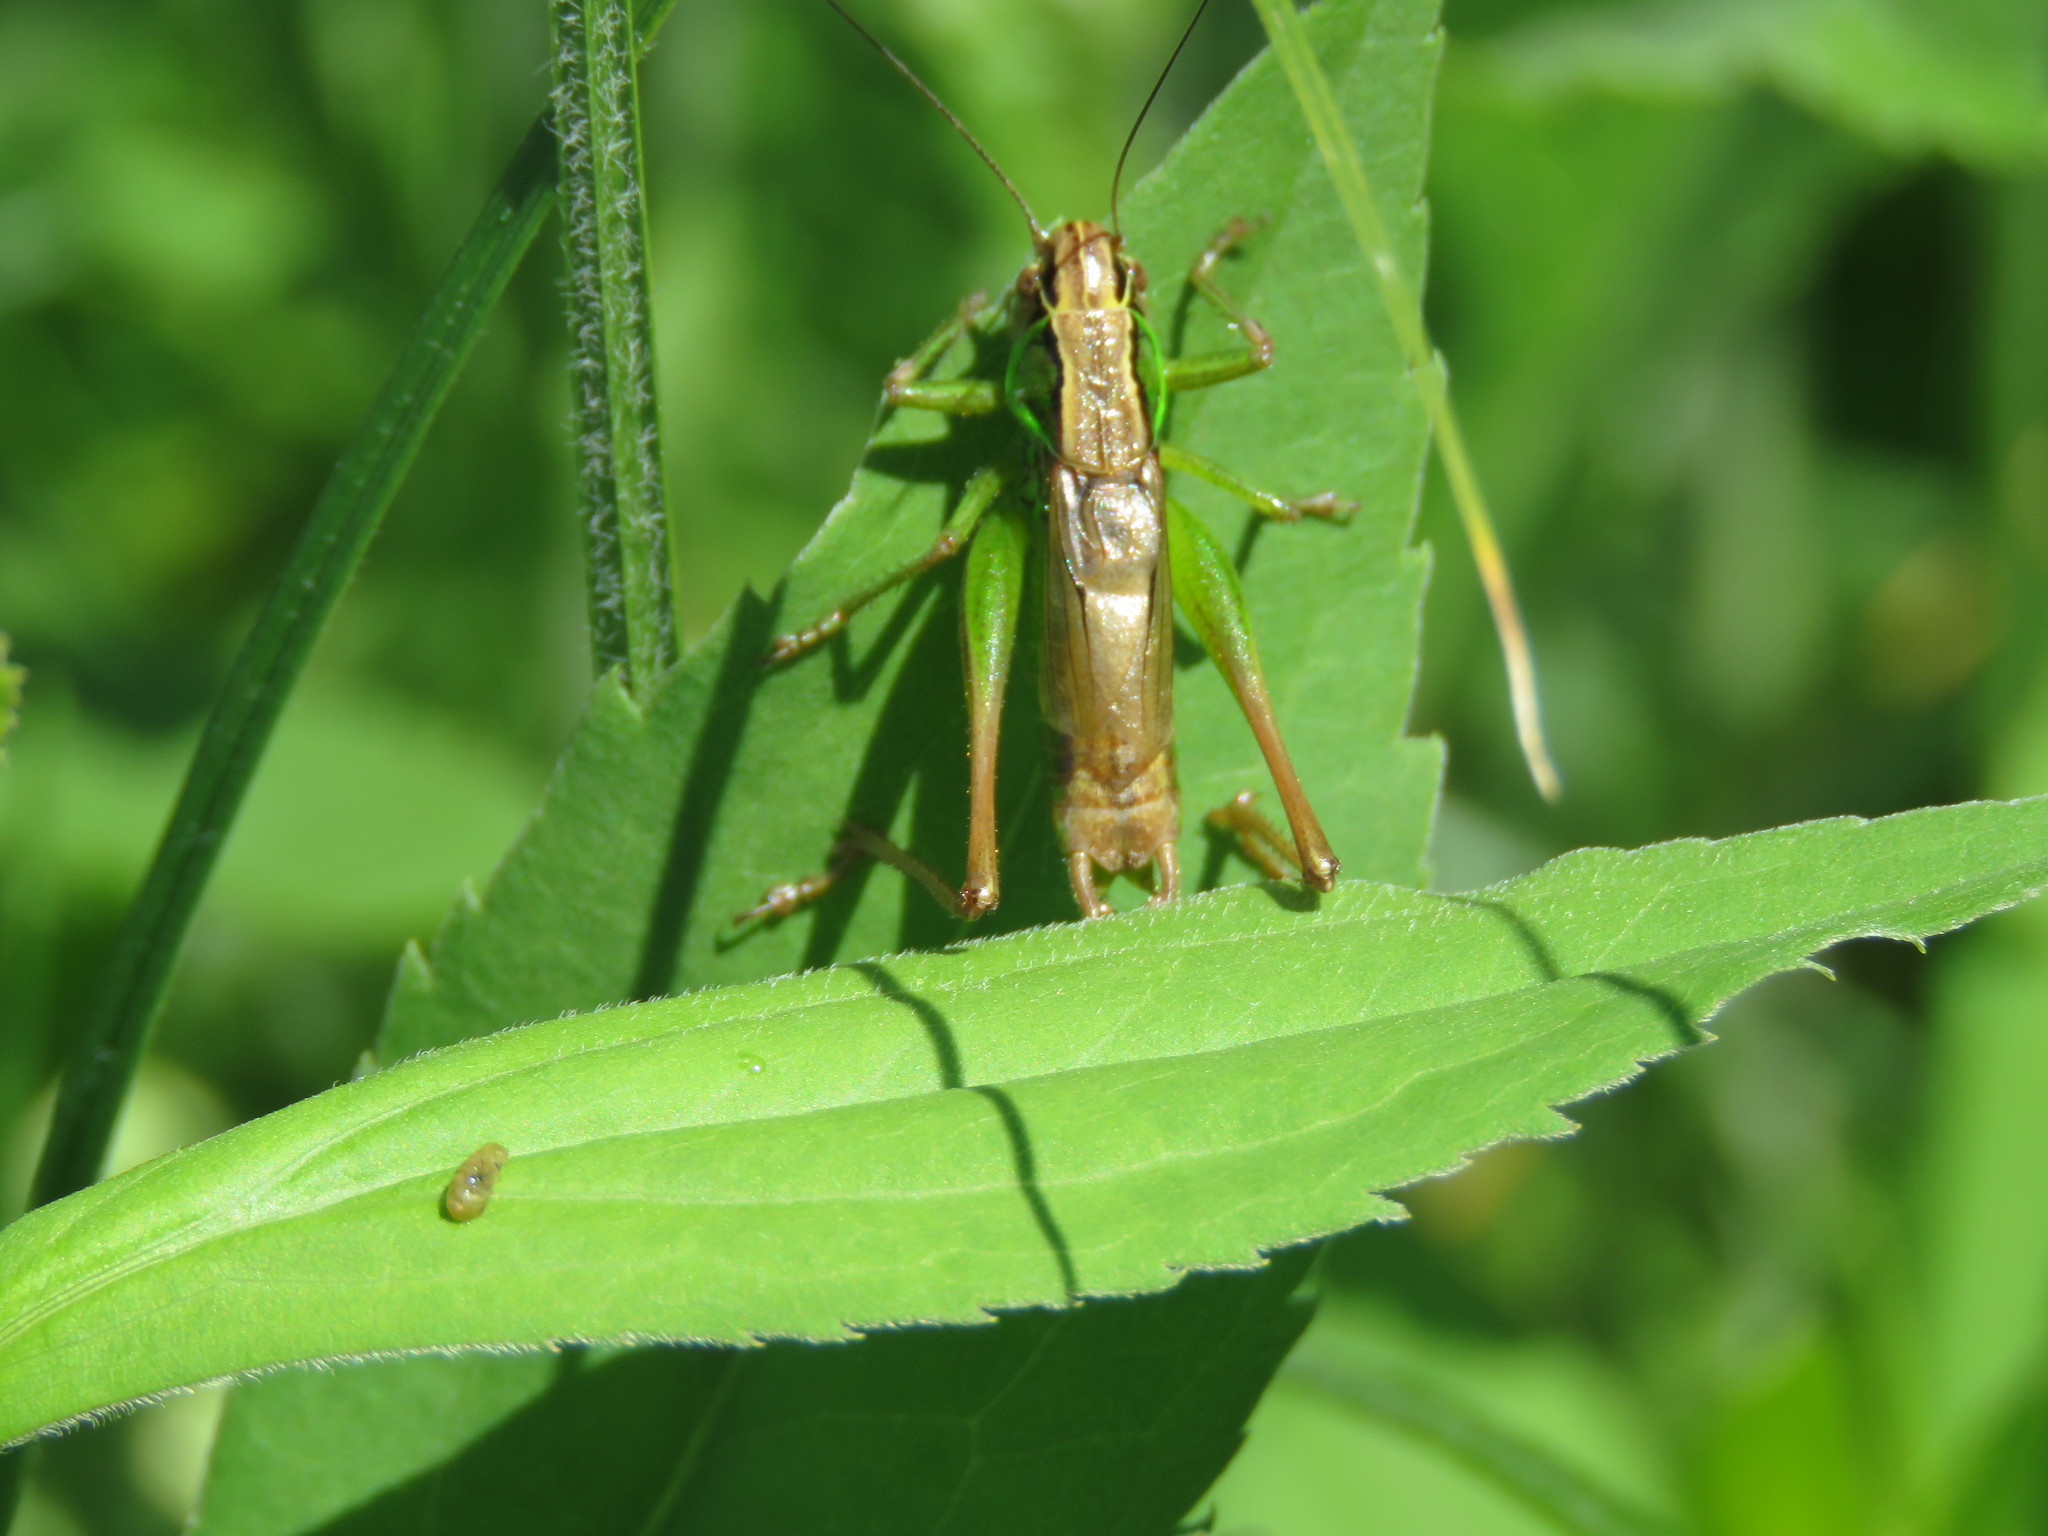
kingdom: Animalia
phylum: Arthropoda
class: Insecta
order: Orthoptera
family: Tettigoniidae
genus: Roeseliana
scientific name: Roeseliana roeselii
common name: Roesel's bush cricket
